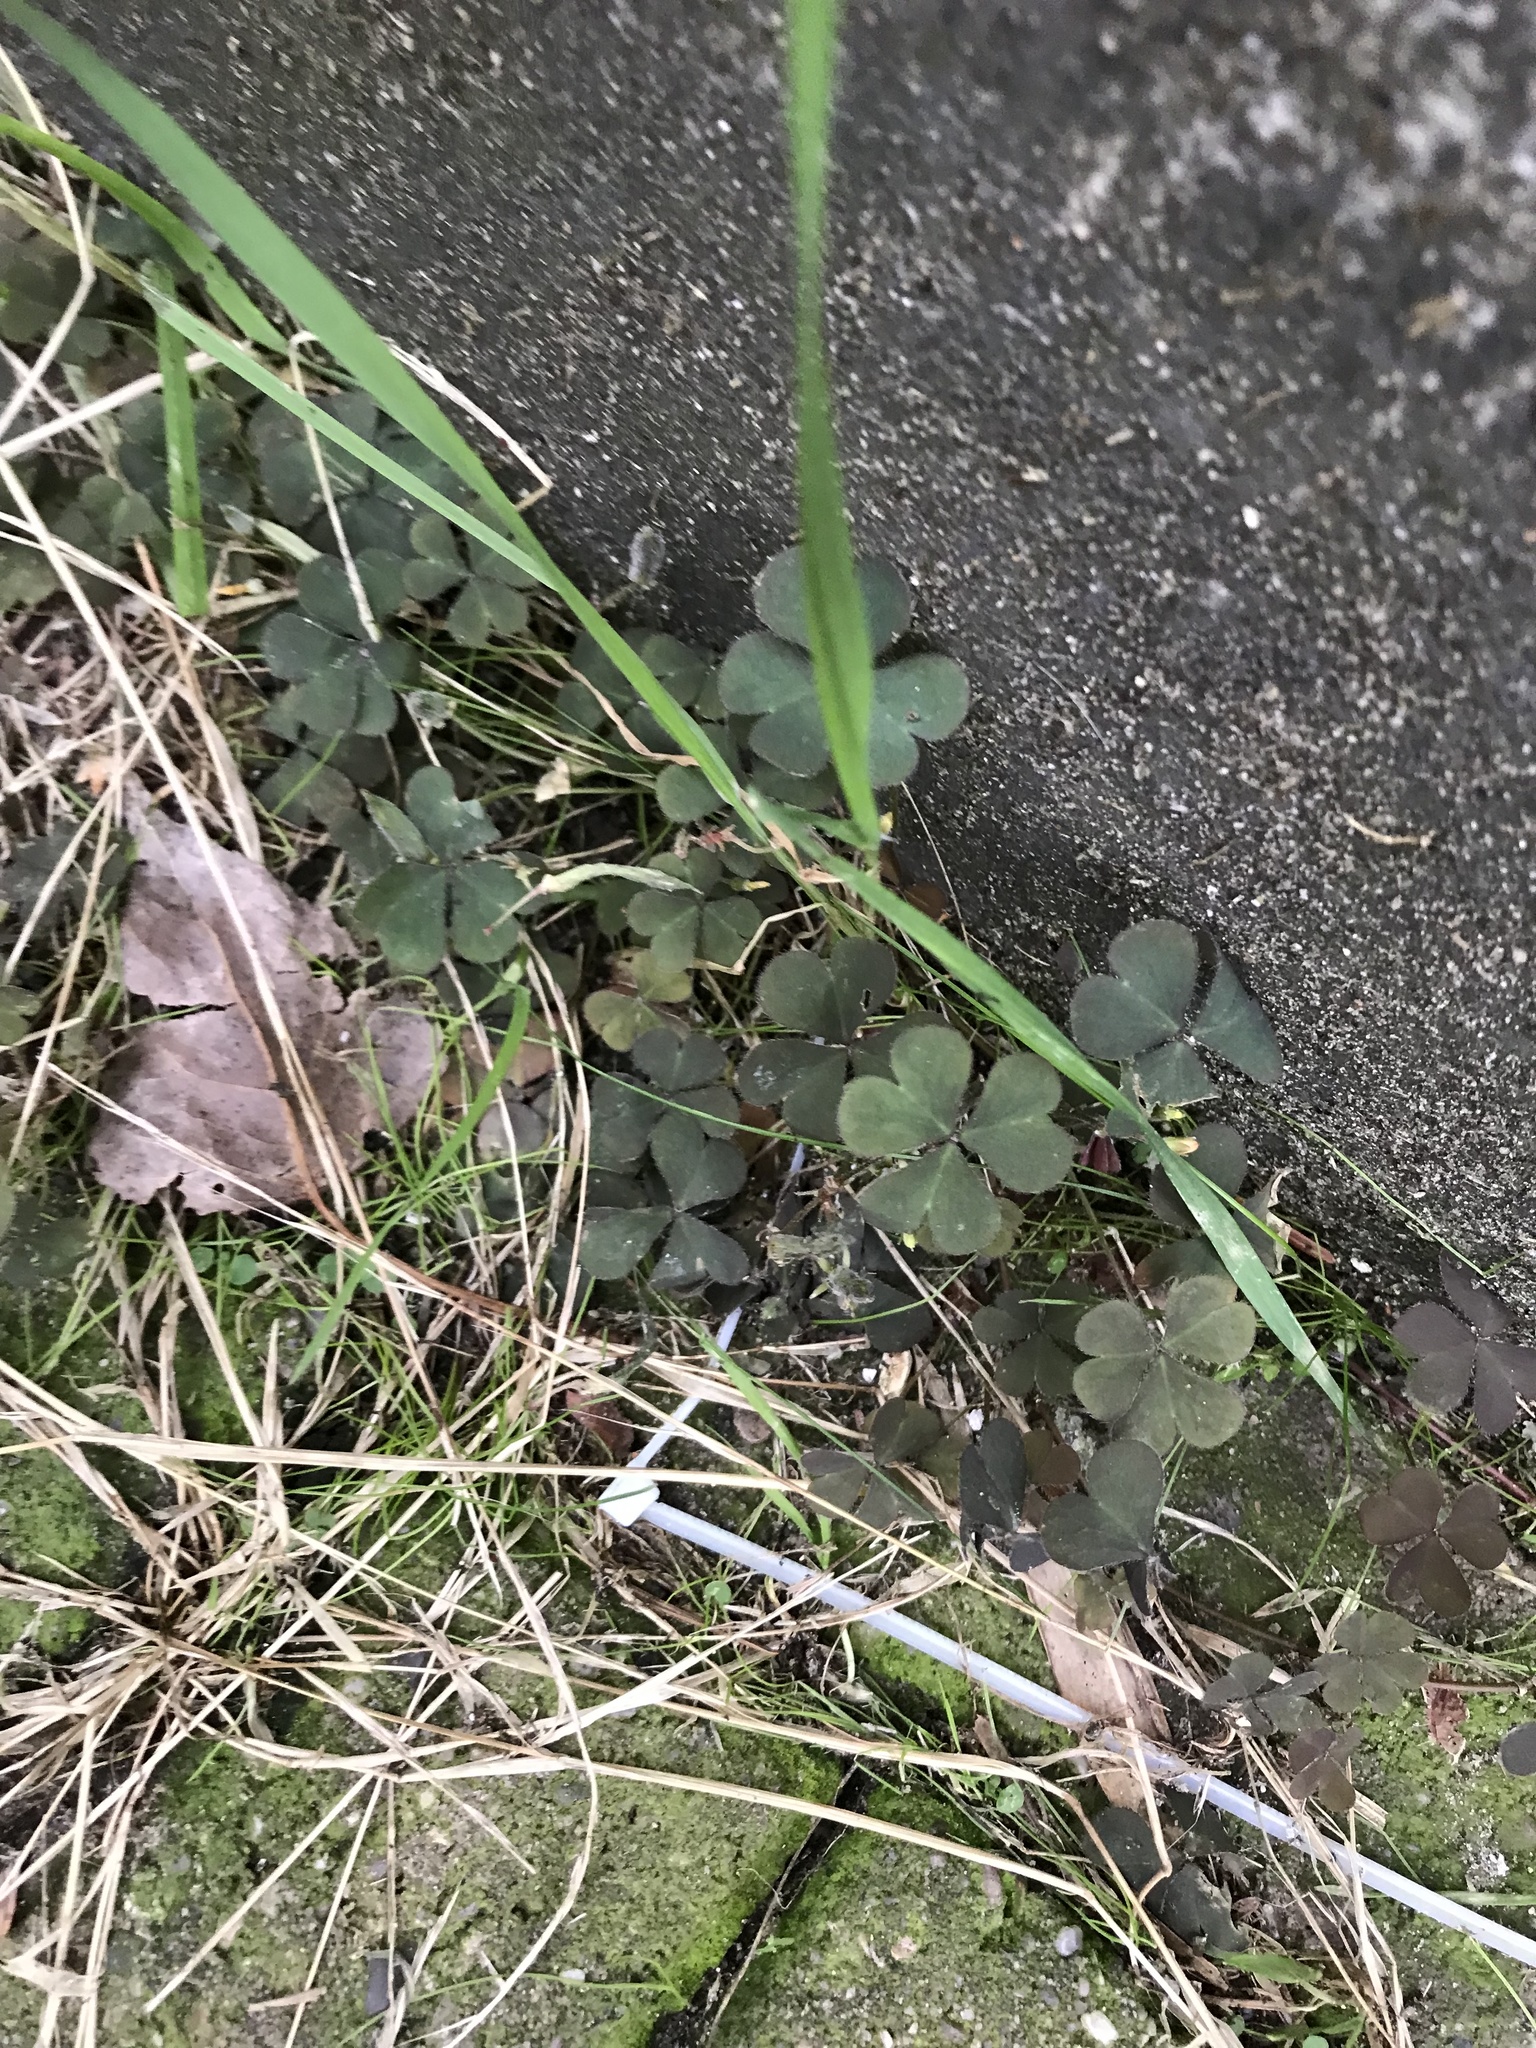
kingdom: Plantae
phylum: Tracheophyta
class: Magnoliopsida
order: Oxalidales
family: Oxalidaceae
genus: Oxalis
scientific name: Oxalis corniculata
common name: Procumbent yellow-sorrel
